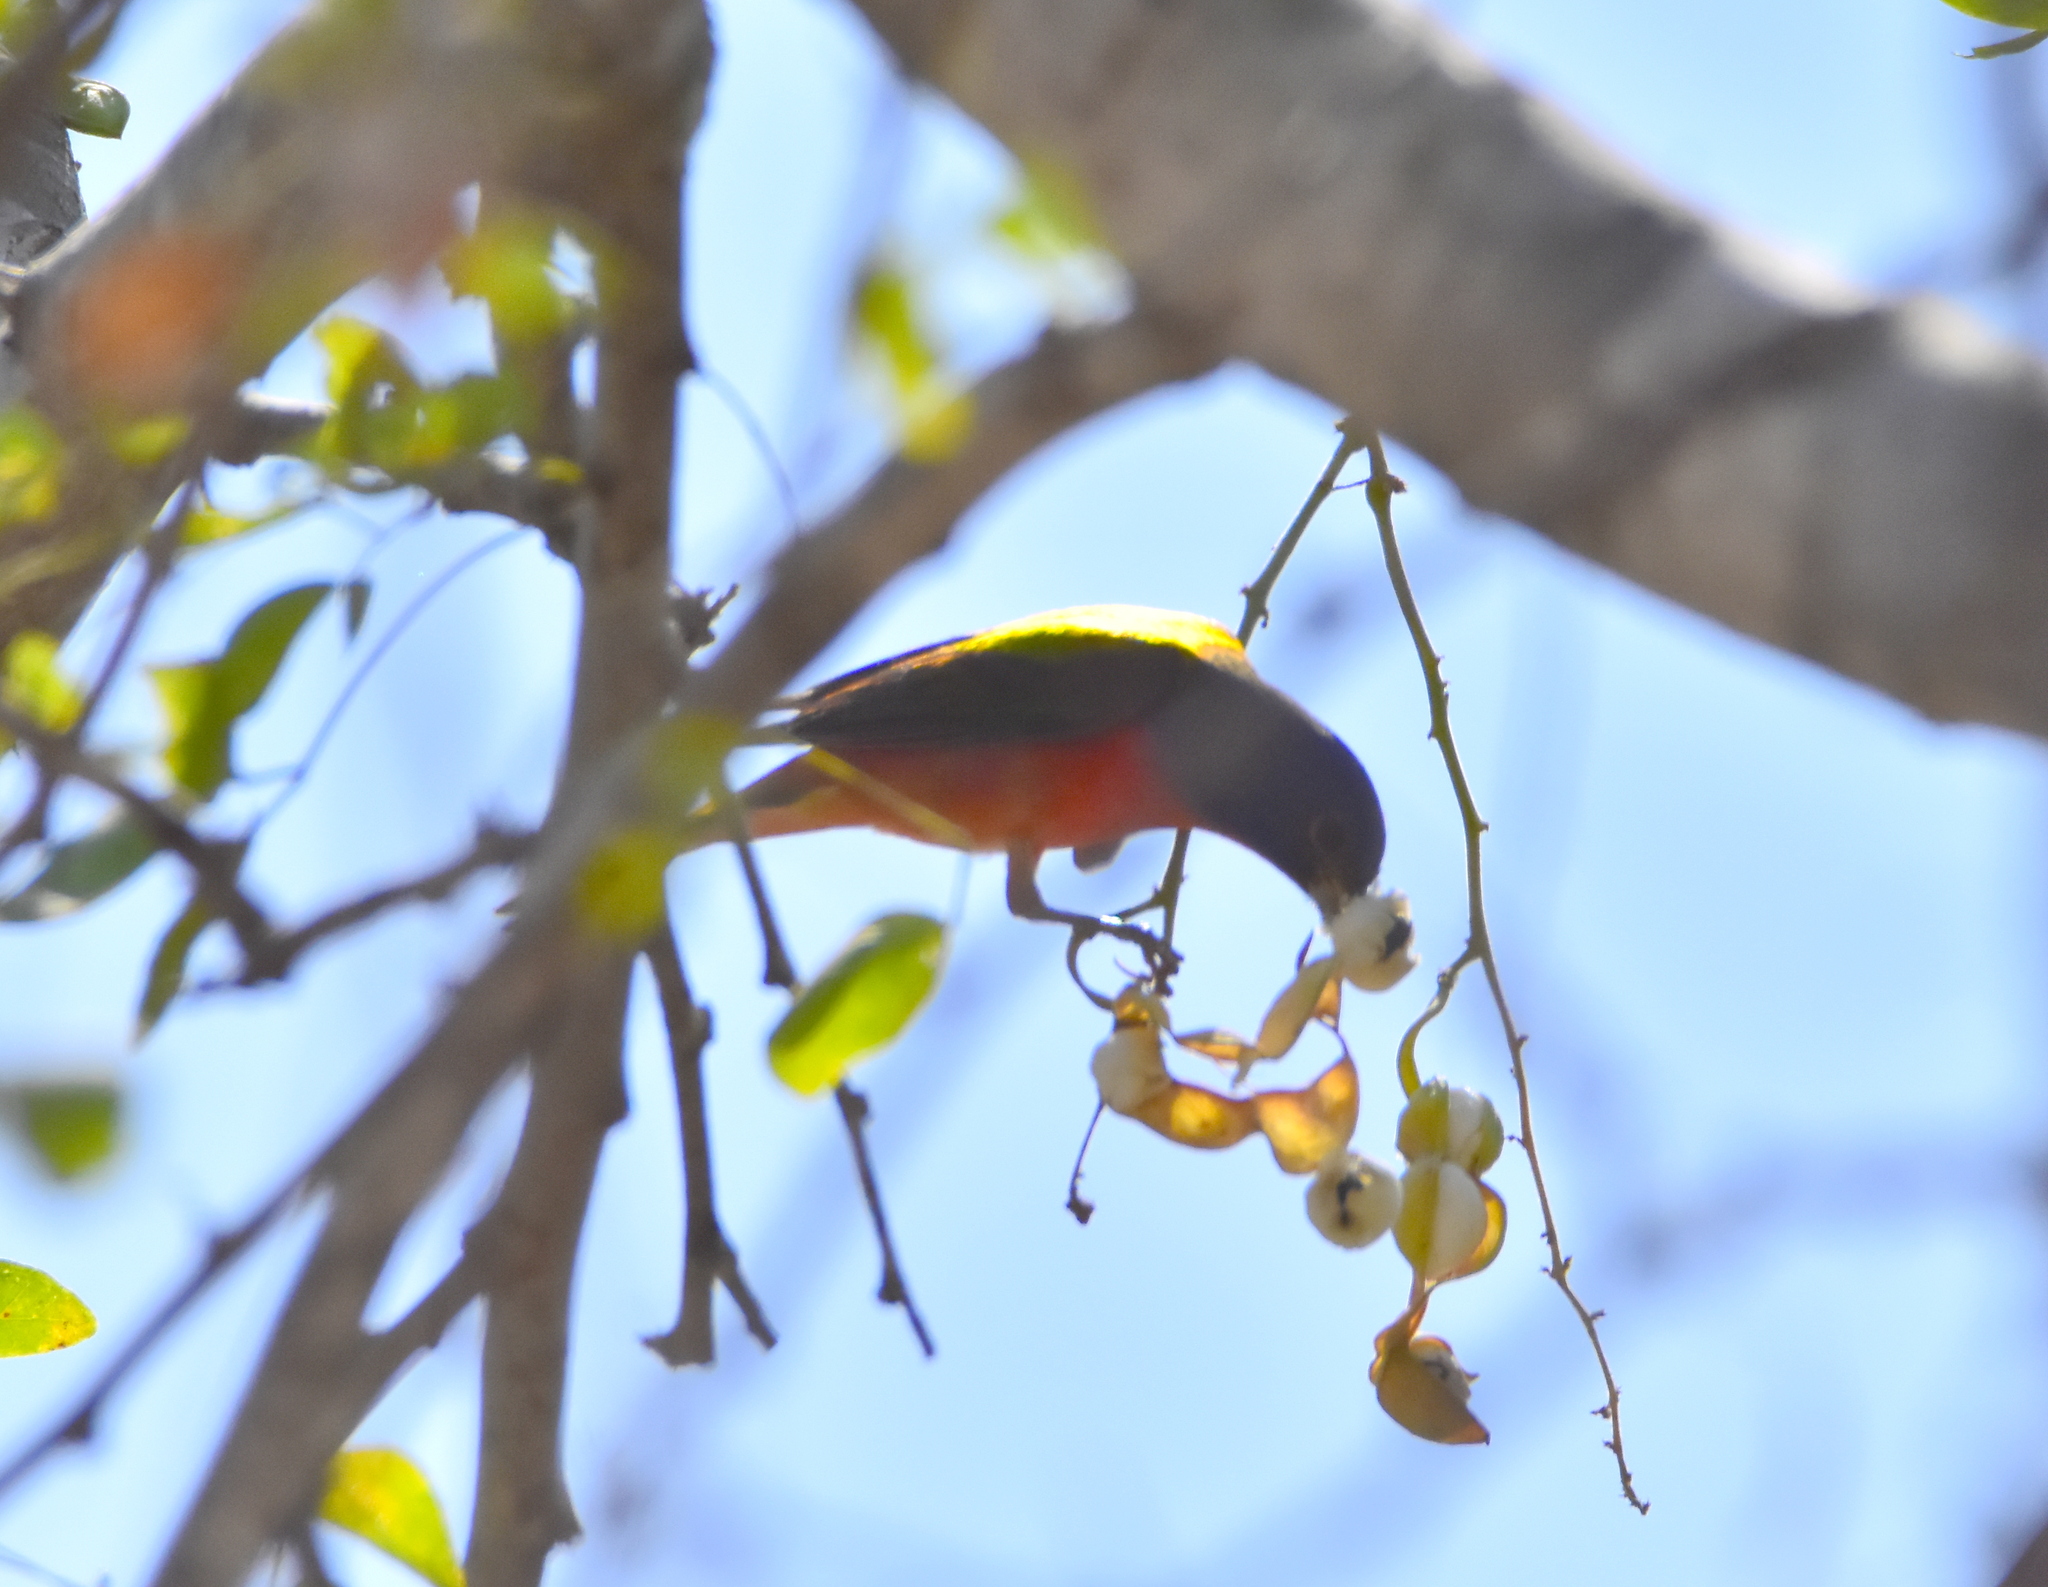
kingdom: Animalia
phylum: Chordata
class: Aves
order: Passeriformes
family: Cardinalidae
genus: Passerina
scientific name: Passerina ciris
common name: Painted bunting
